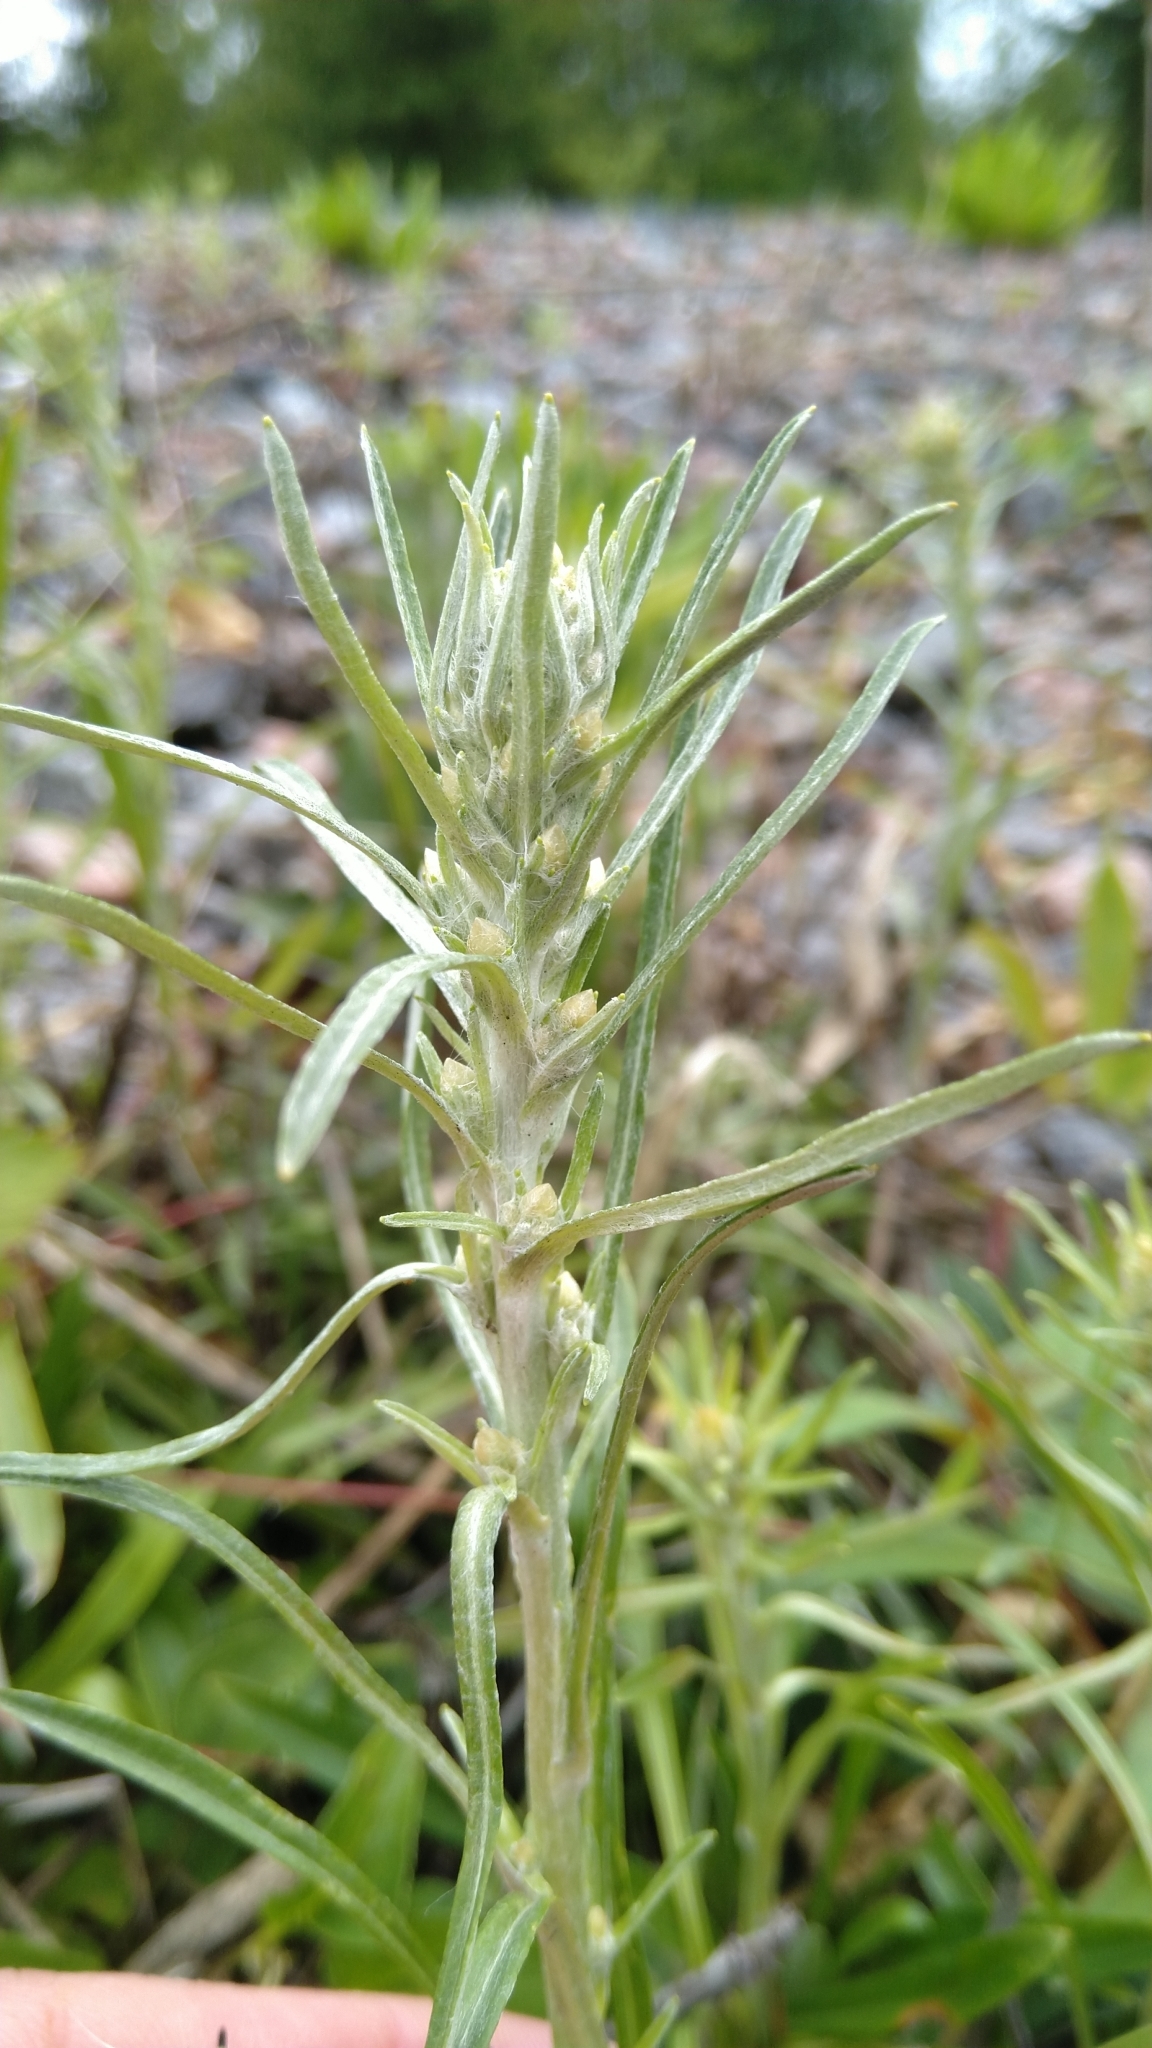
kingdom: Plantae
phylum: Tracheophyta
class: Magnoliopsida
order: Asterales
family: Asteraceae
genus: Omalotheca
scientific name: Omalotheca sylvatica
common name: Heath cudweed
